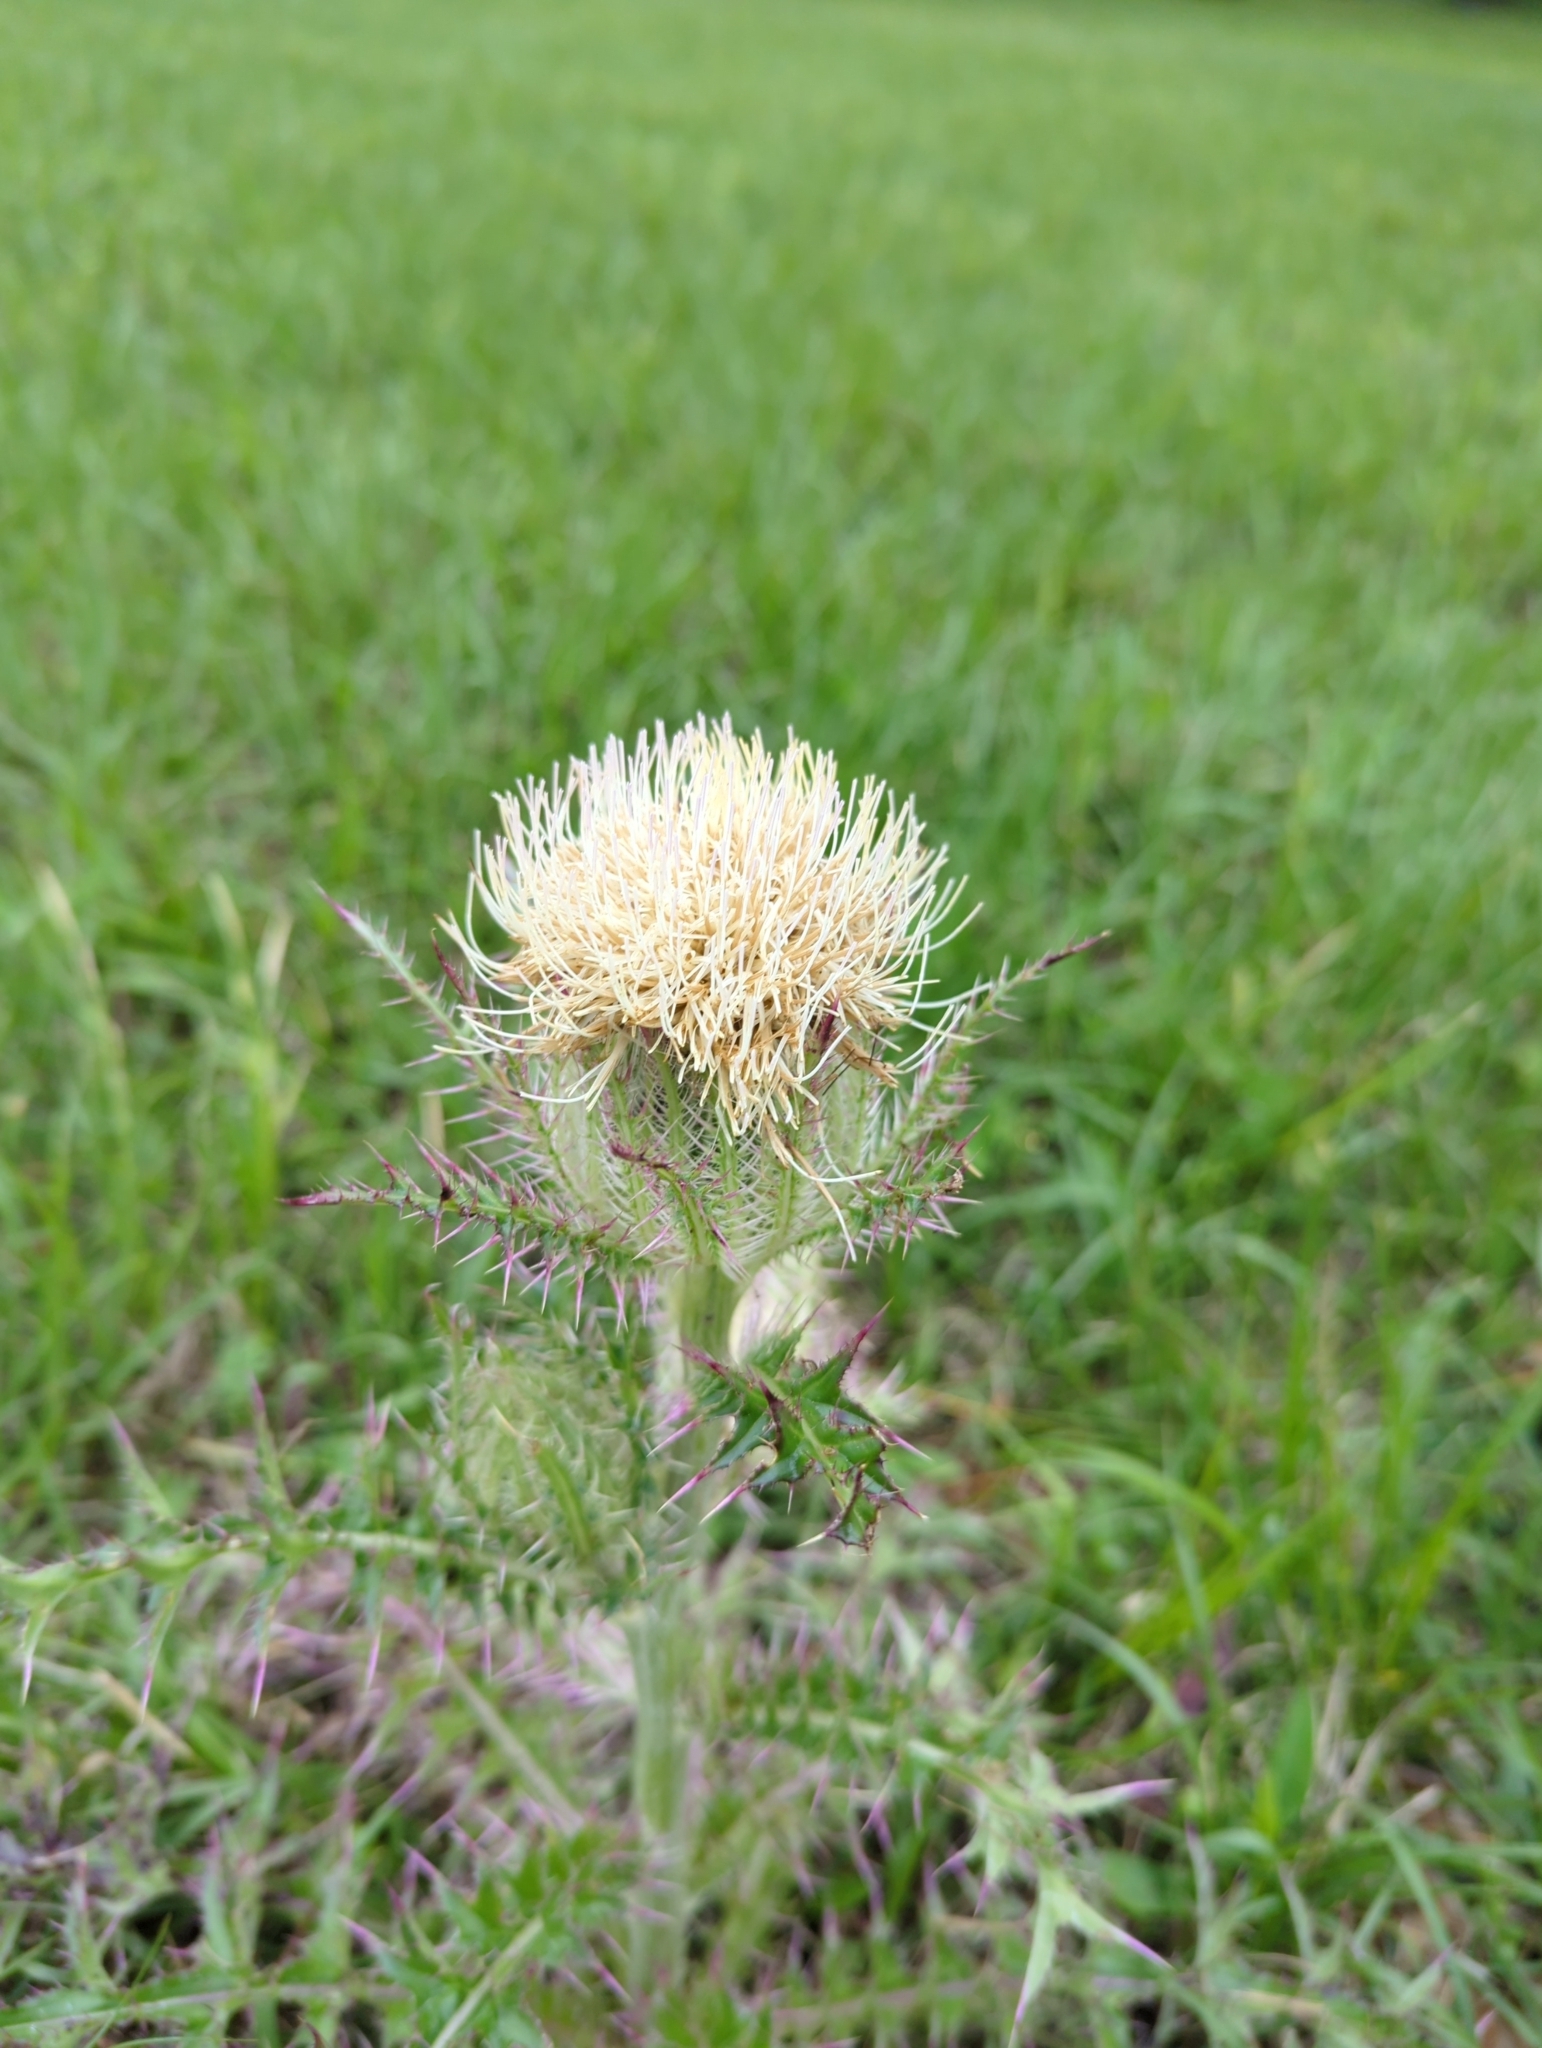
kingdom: Plantae
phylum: Tracheophyta
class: Magnoliopsida
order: Asterales
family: Asteraceae
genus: Cirsium
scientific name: Cirsium horridulum
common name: Bristly thistle
